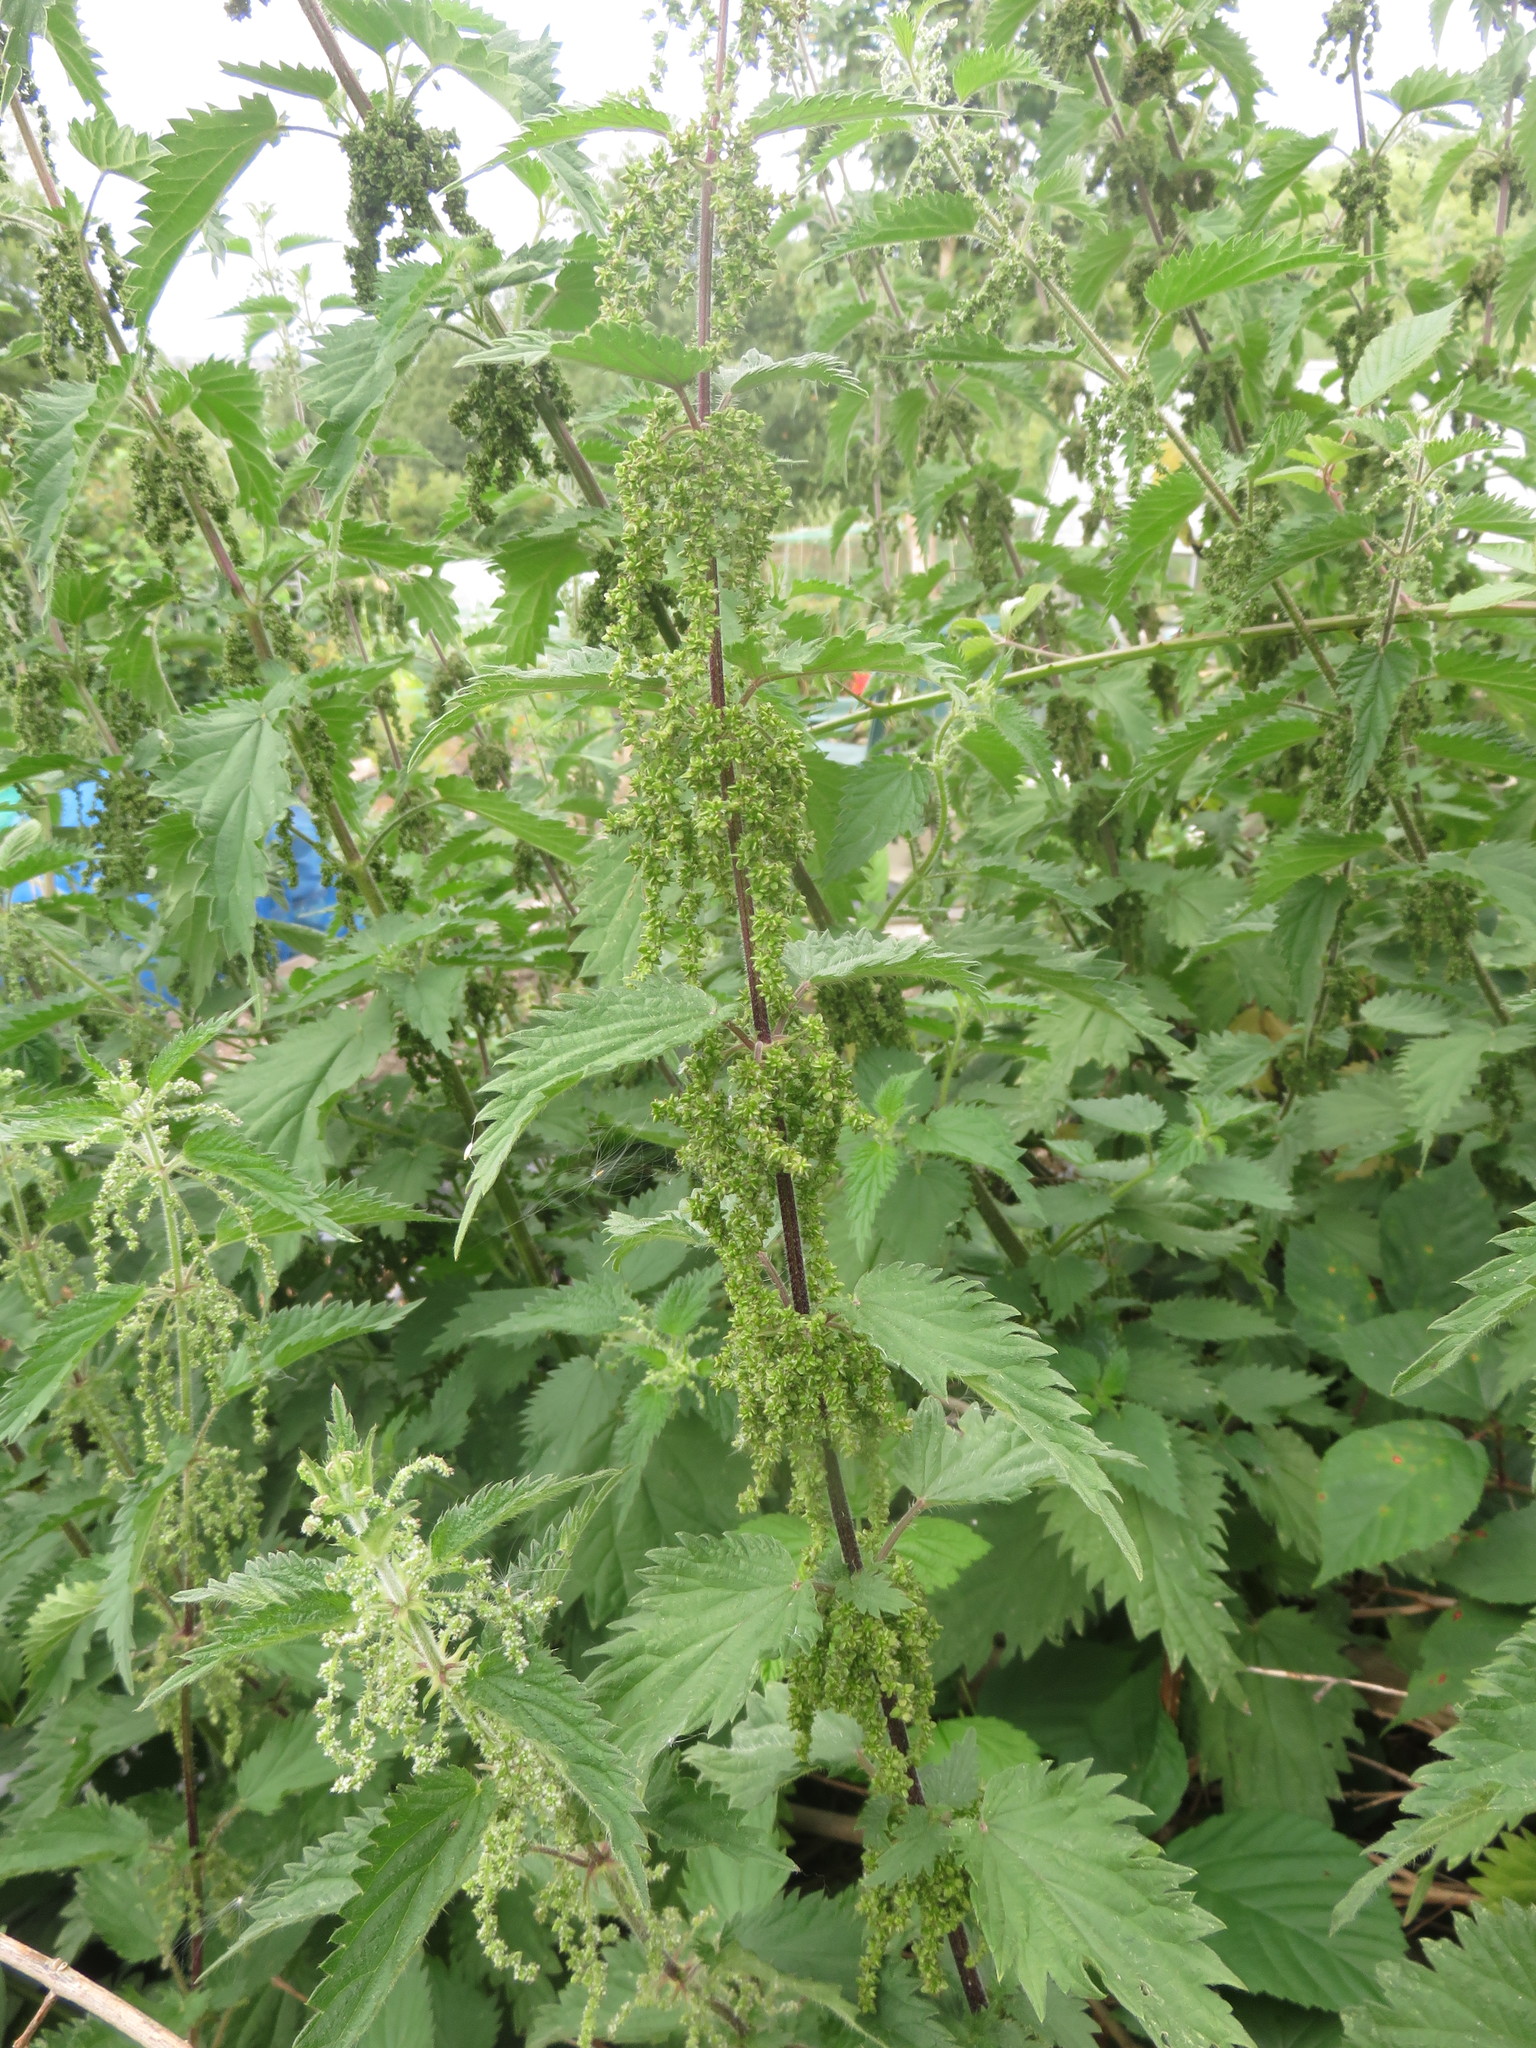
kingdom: Plantae
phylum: Tracheophyta
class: Magnoliopsida
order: Rosales
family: Urticaceae
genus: Urtica
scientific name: Urtica dioica
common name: Common nettle
